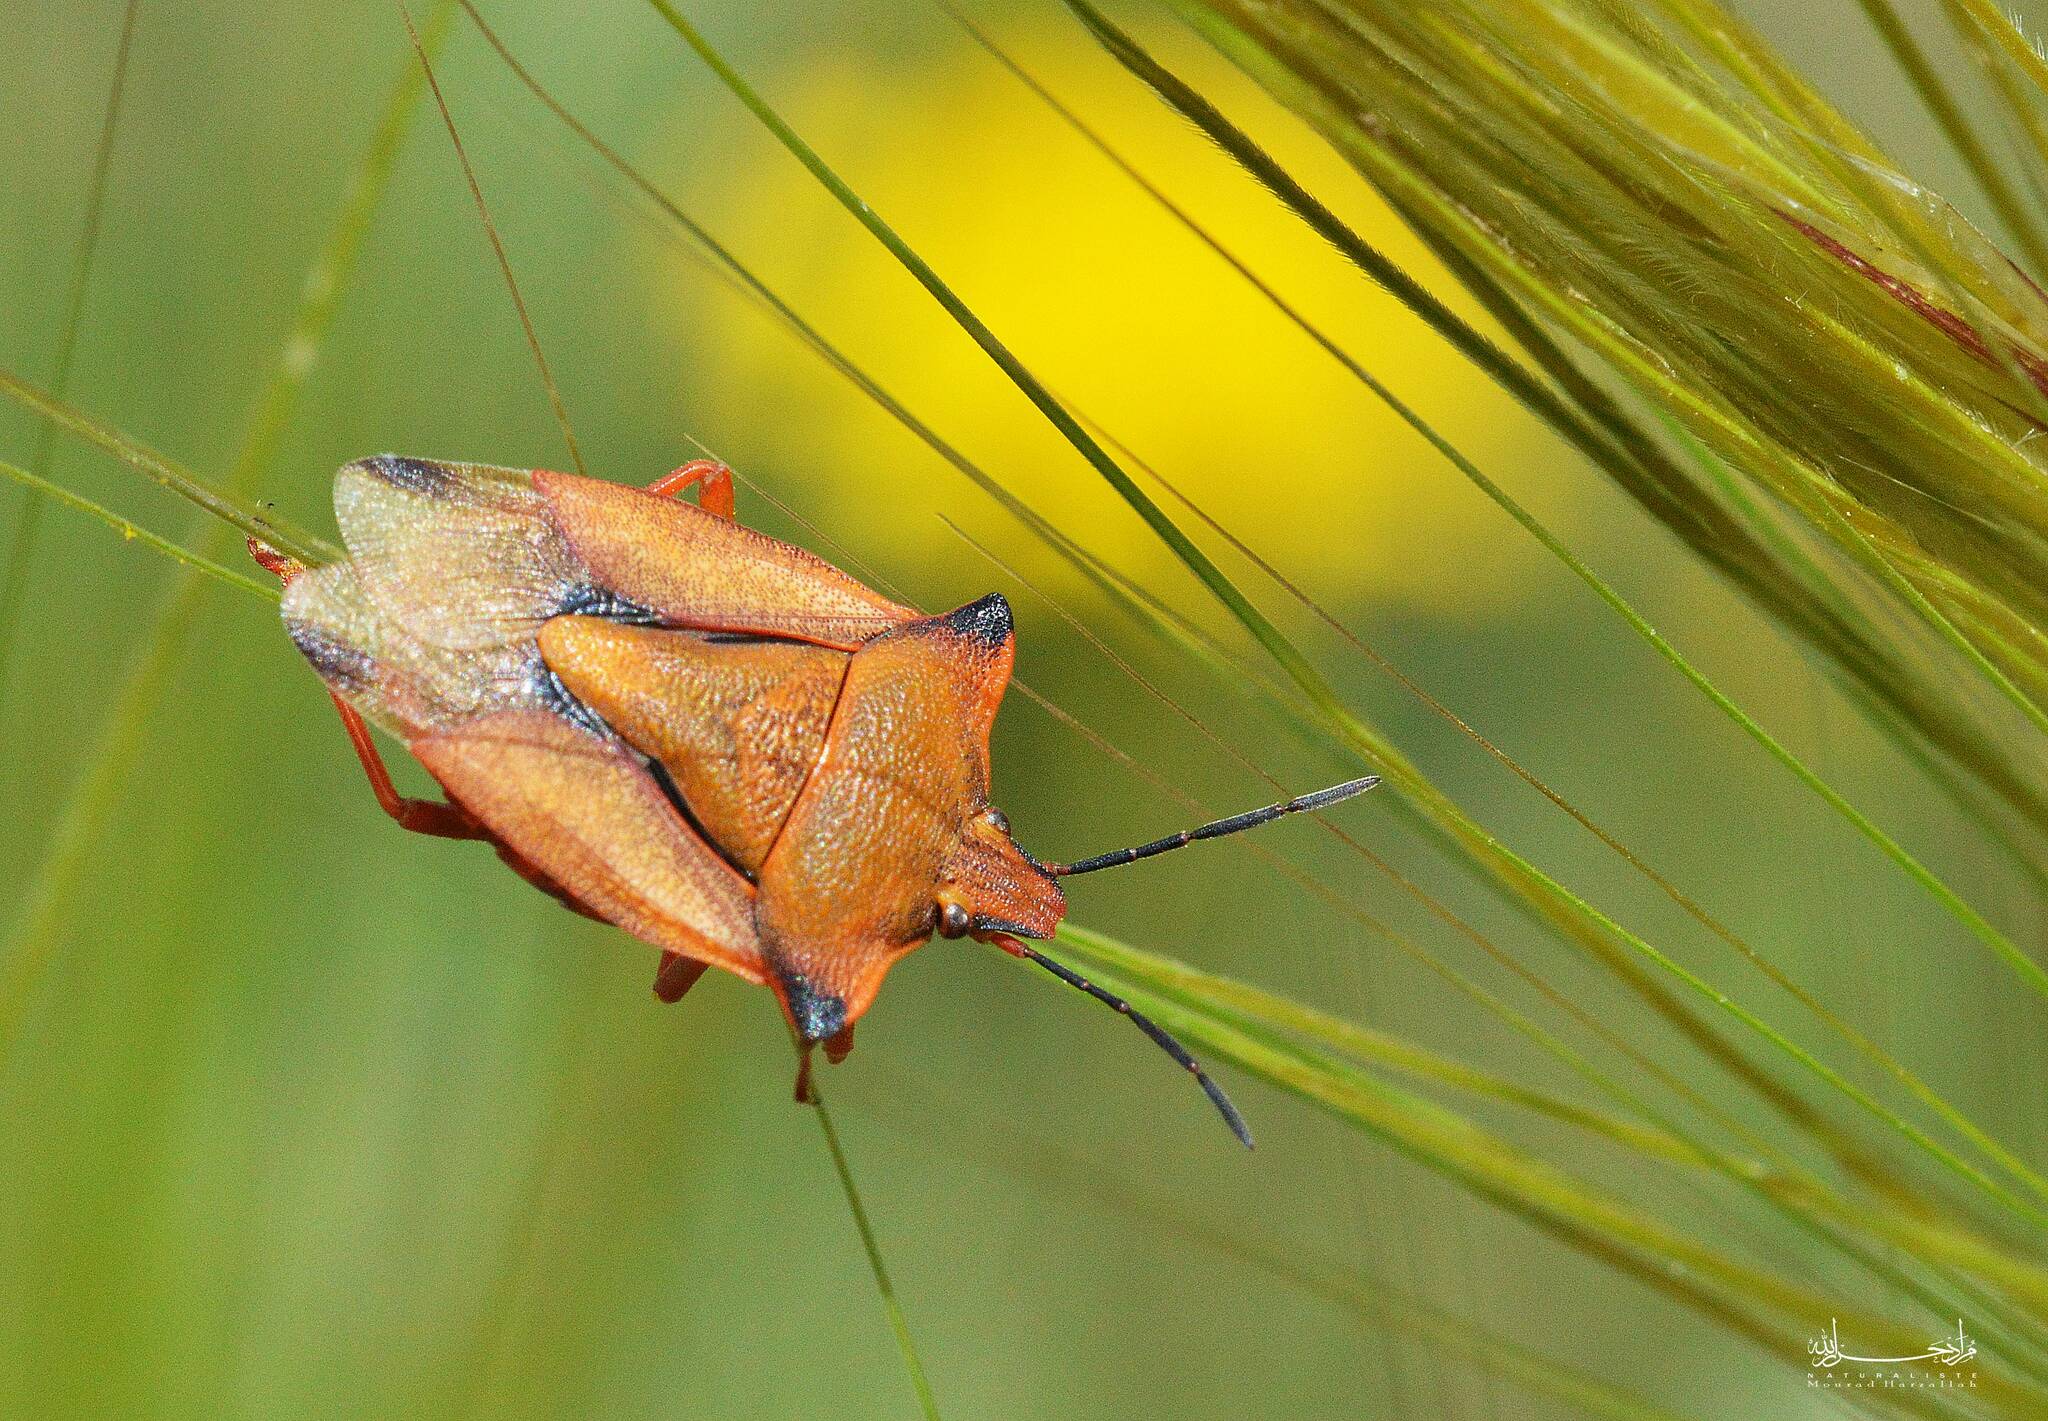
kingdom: Animalia
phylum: Arthropoda
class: Insecta
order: Hemiptera
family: Pentatomidae
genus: Carpocoris
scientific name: Carpocoris mediterraneus
